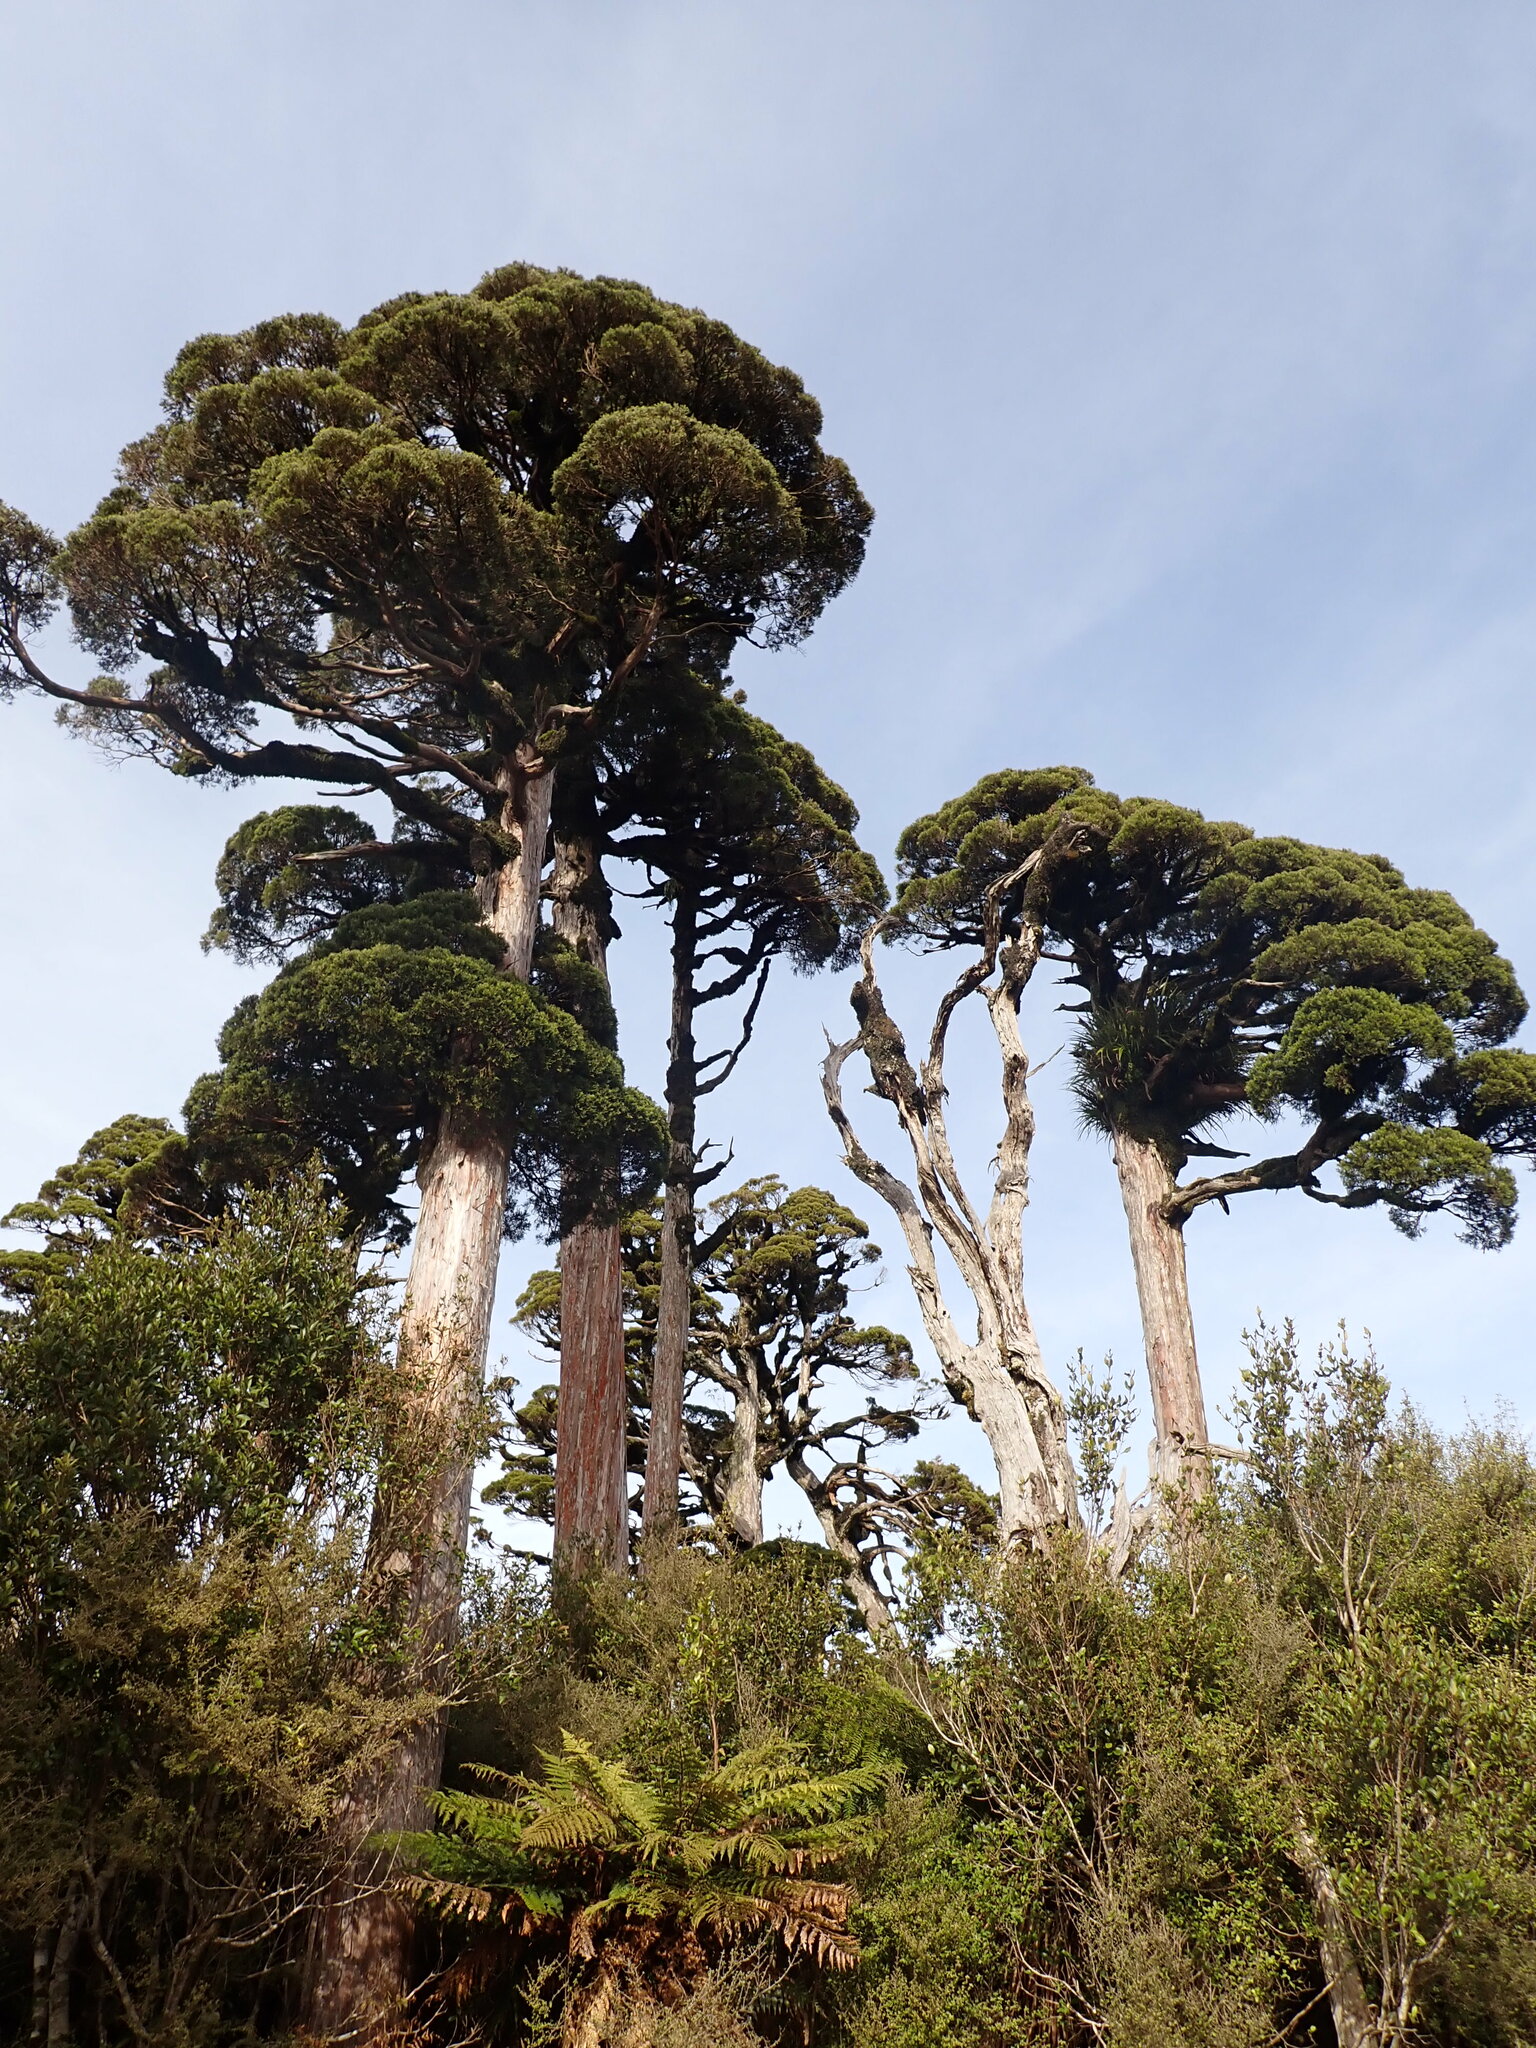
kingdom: Plantae
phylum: Tracheophyta
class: Pinopsida
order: Pinales
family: Cupressaceae
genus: Libocedrus
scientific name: Libocedrus bidwillii
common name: Cedar
